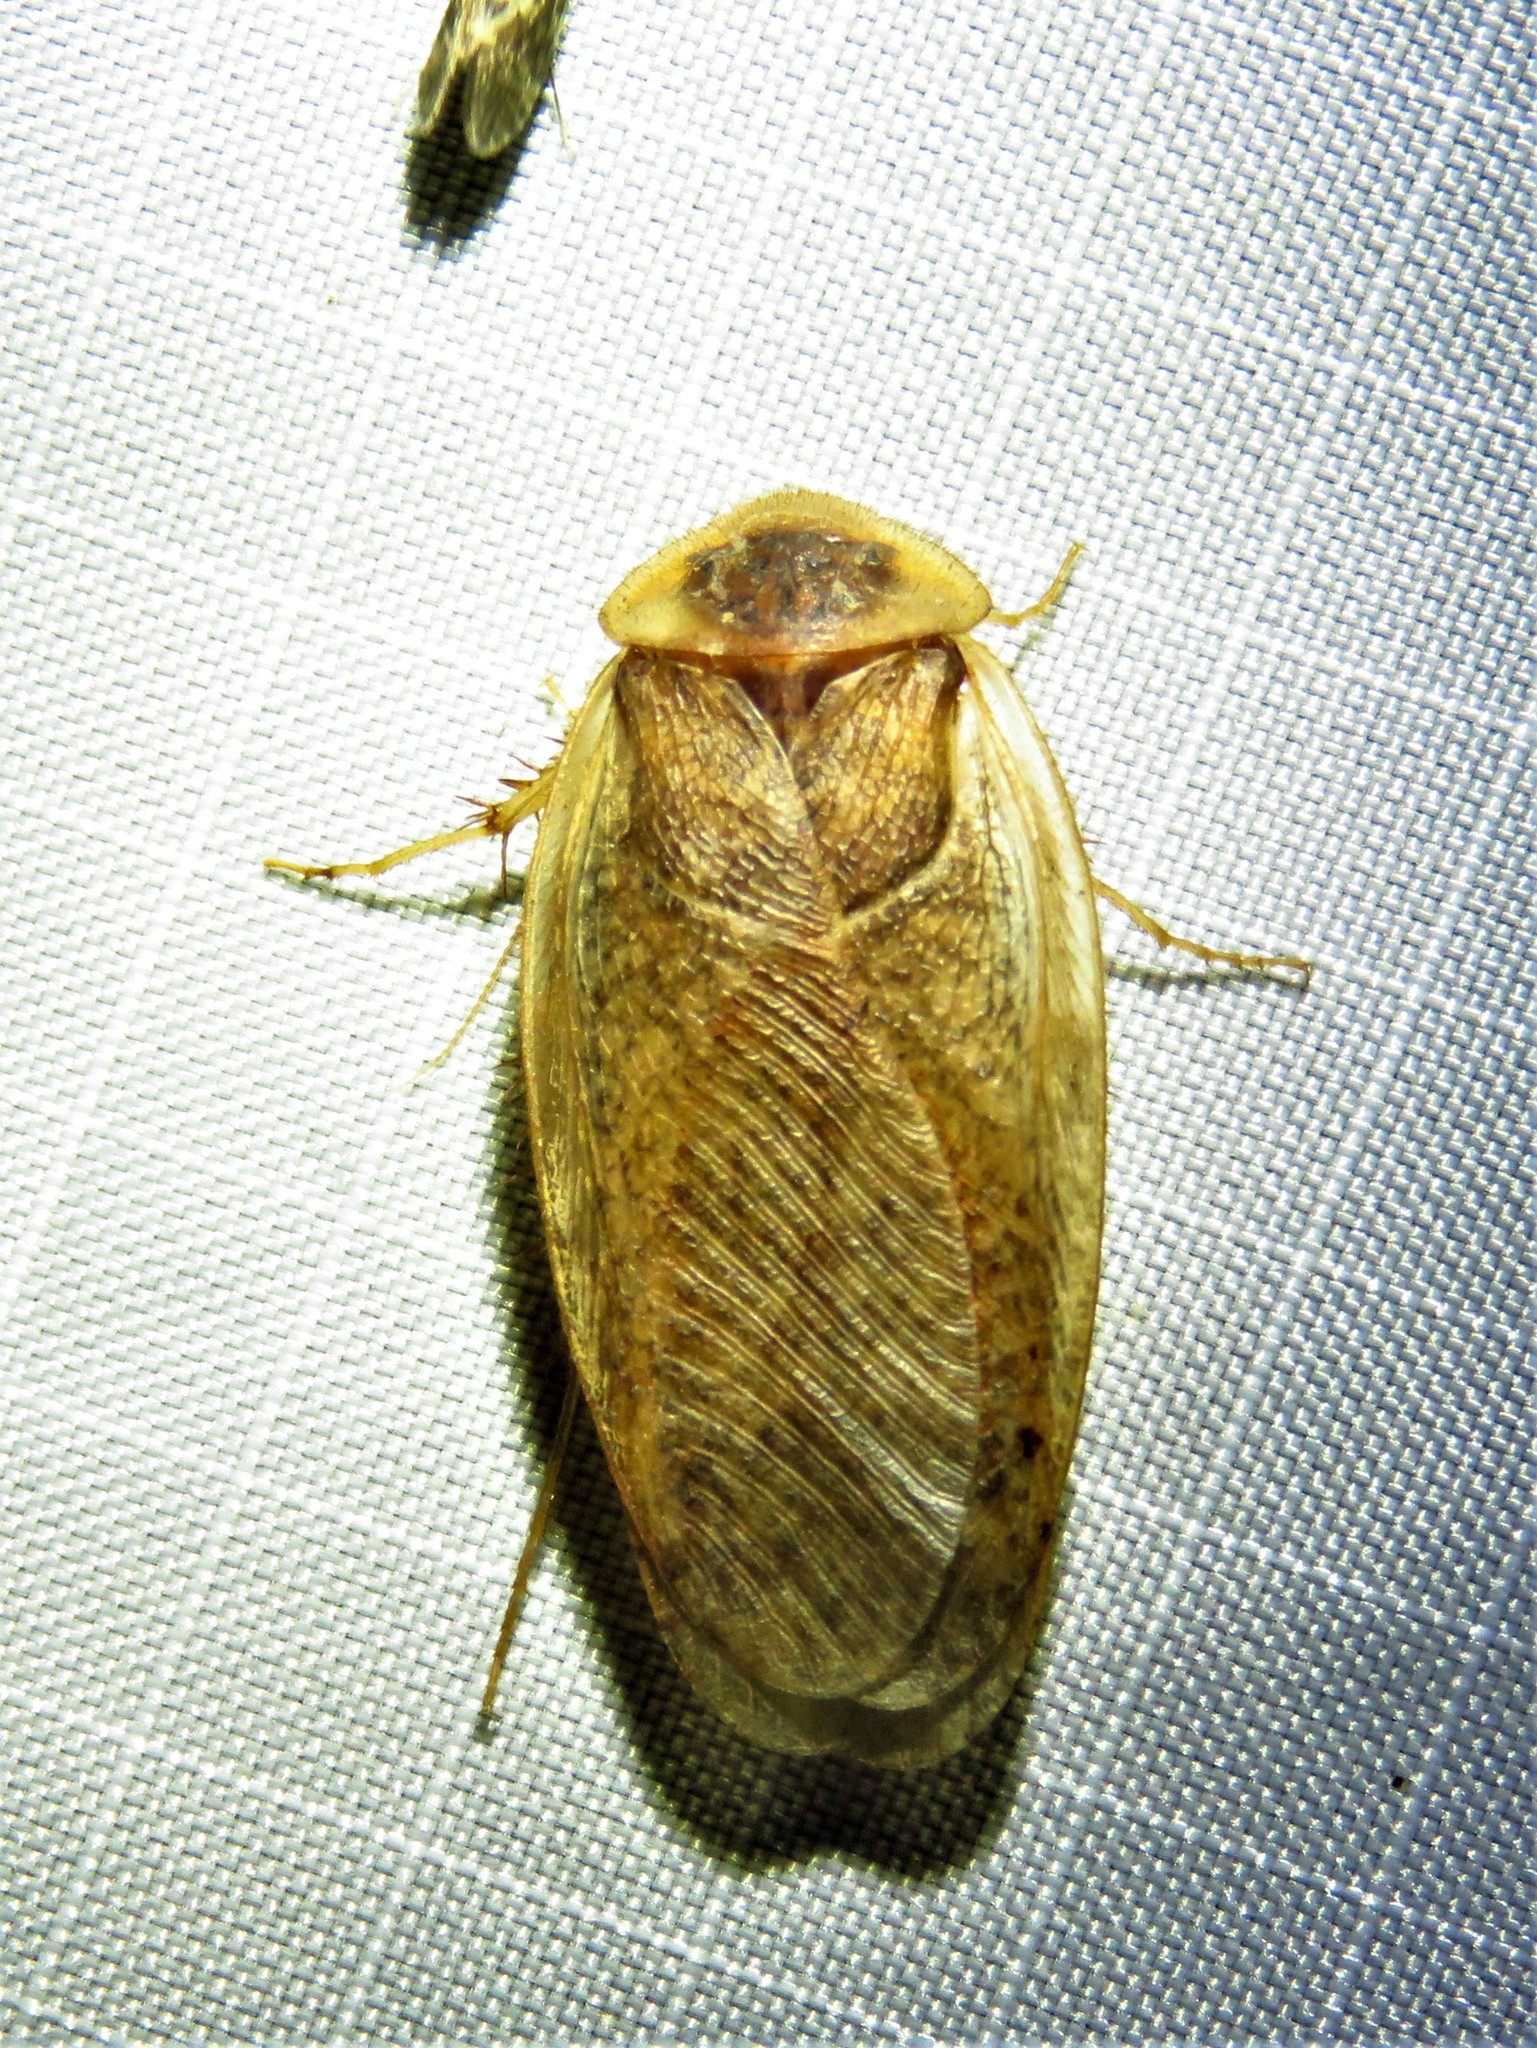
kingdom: Animalia
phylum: Arthropoda
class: Insecta
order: Blattodea
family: Corydiidae
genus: Arenivaga
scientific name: Arenivaga bolliana
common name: Boll's sand cockroach
